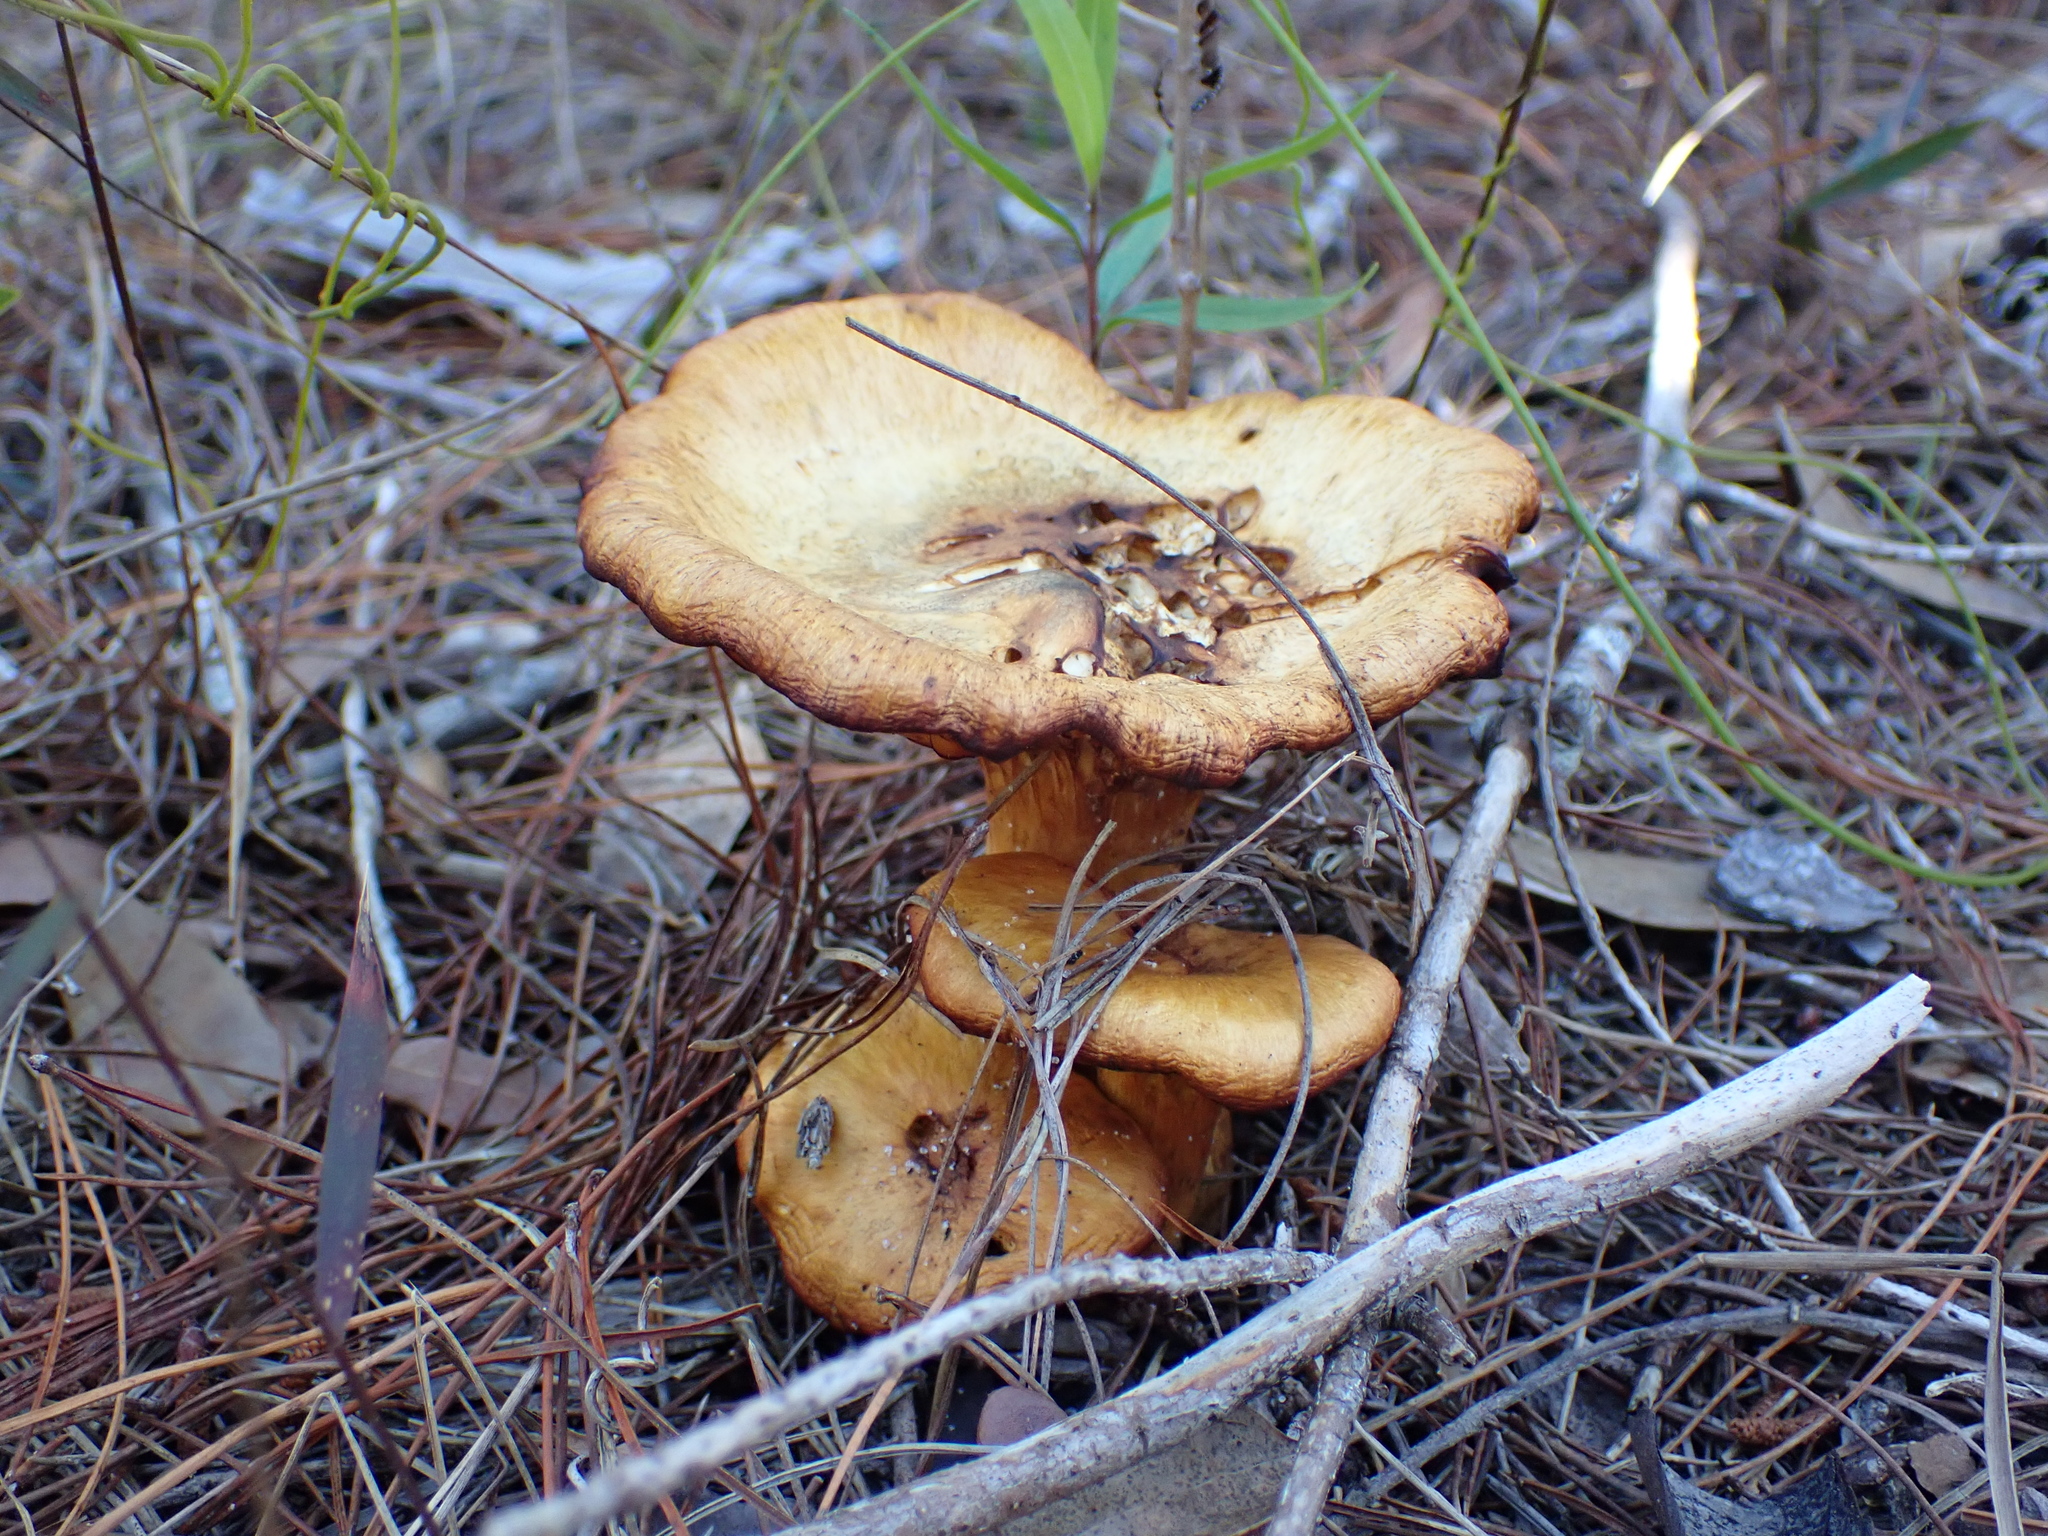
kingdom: Fungi
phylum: Basidiomycota
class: Agaricomycetes
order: Agaricales
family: Omphalotaceae
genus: Omphalotus
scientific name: Omphalotus subilludens
